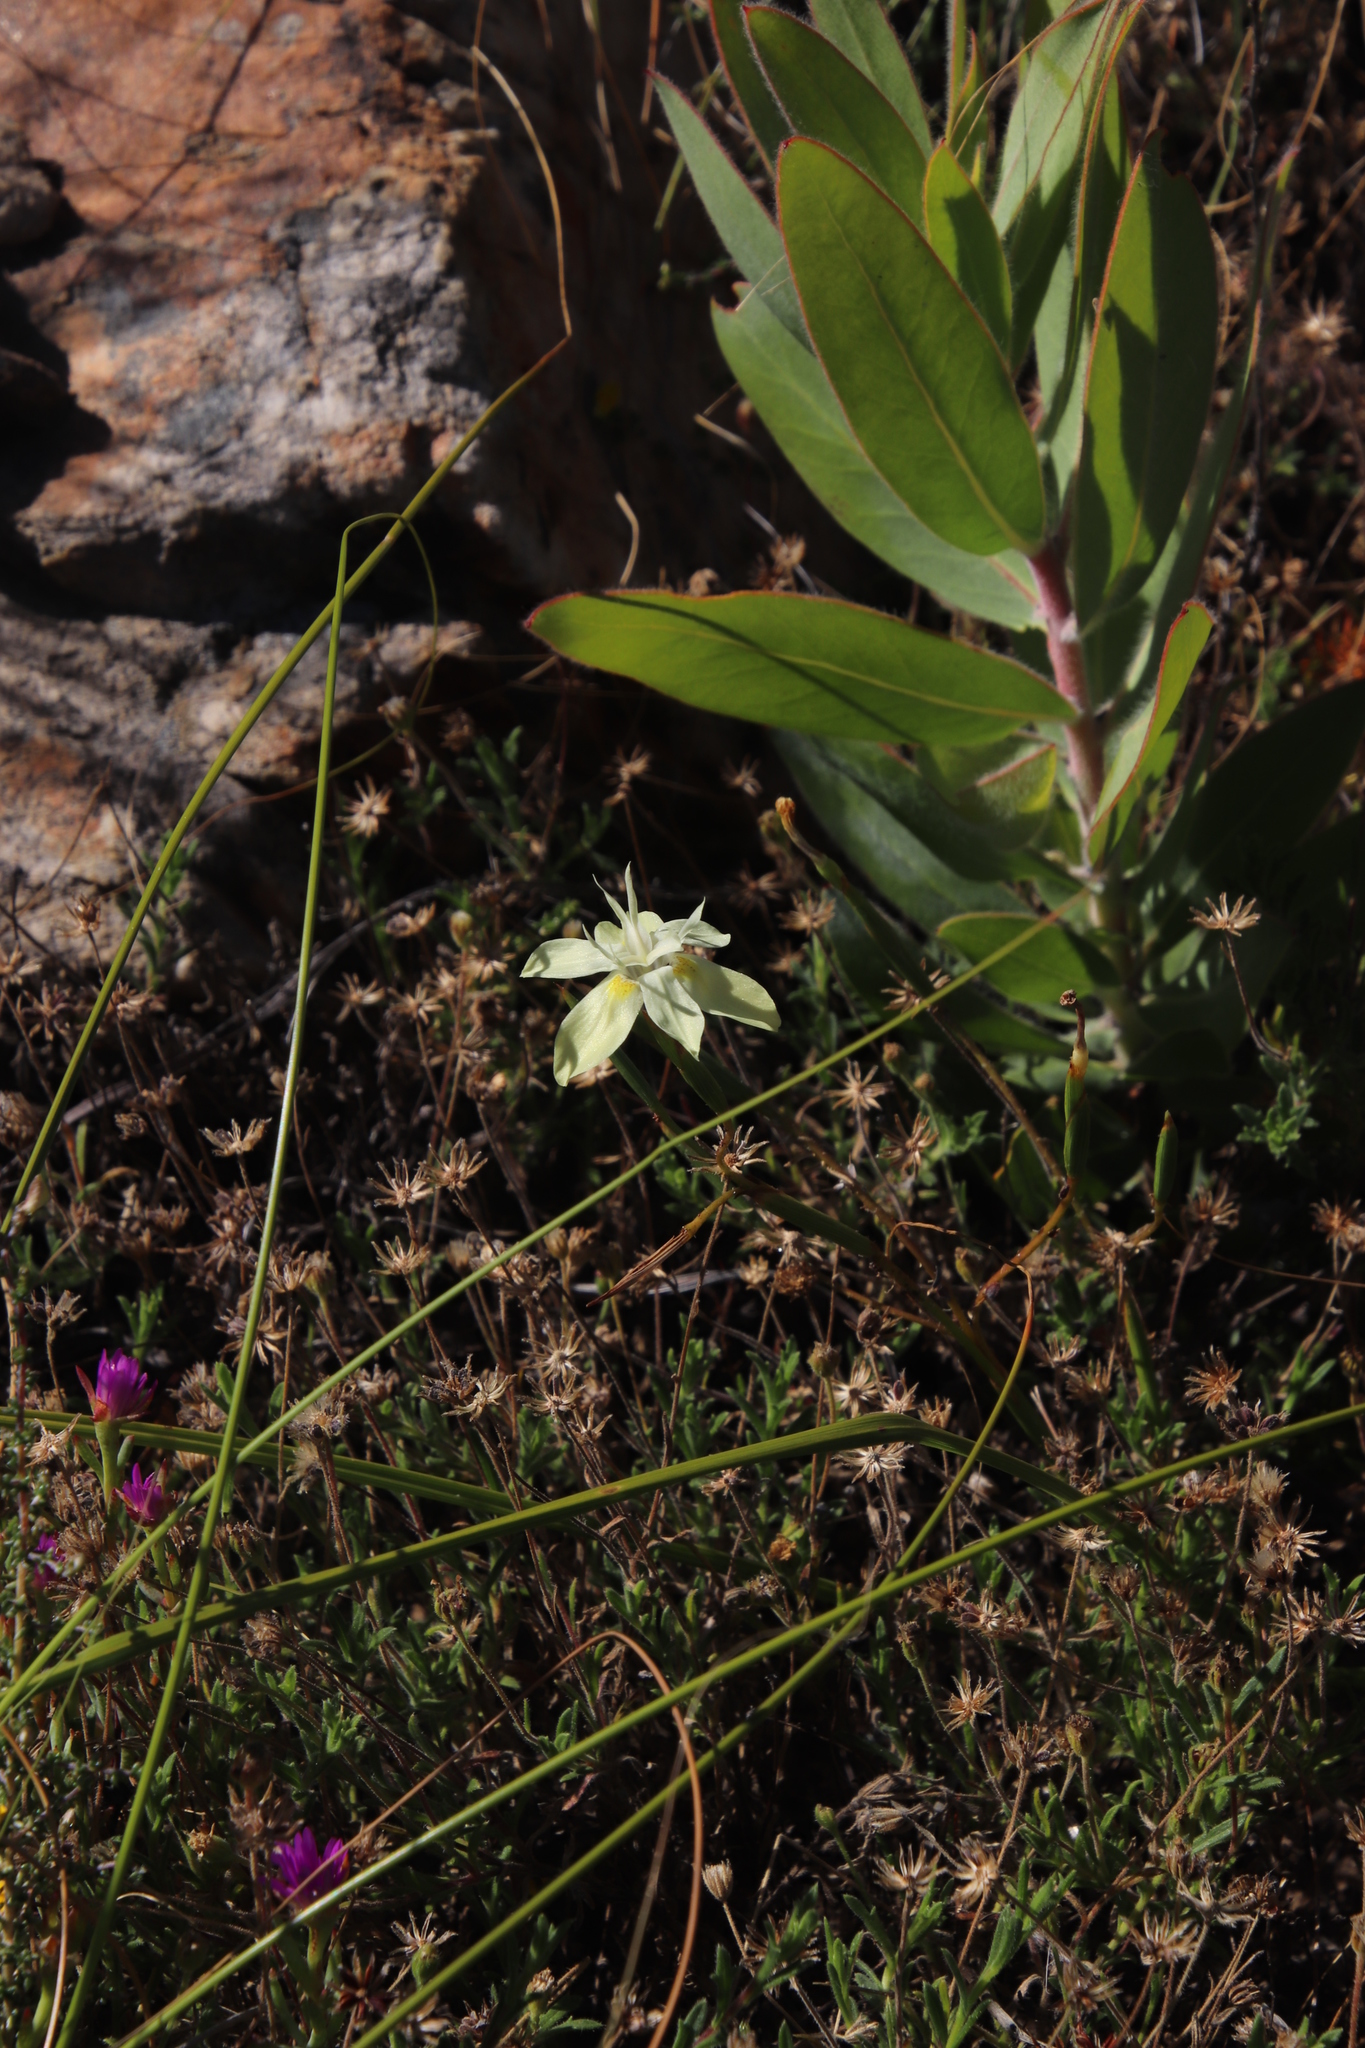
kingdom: Plantae
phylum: Tracheophyta
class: Liliopsida
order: Asparagales
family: Iridaceae
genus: Moraea
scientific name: Moraea bituminosa
